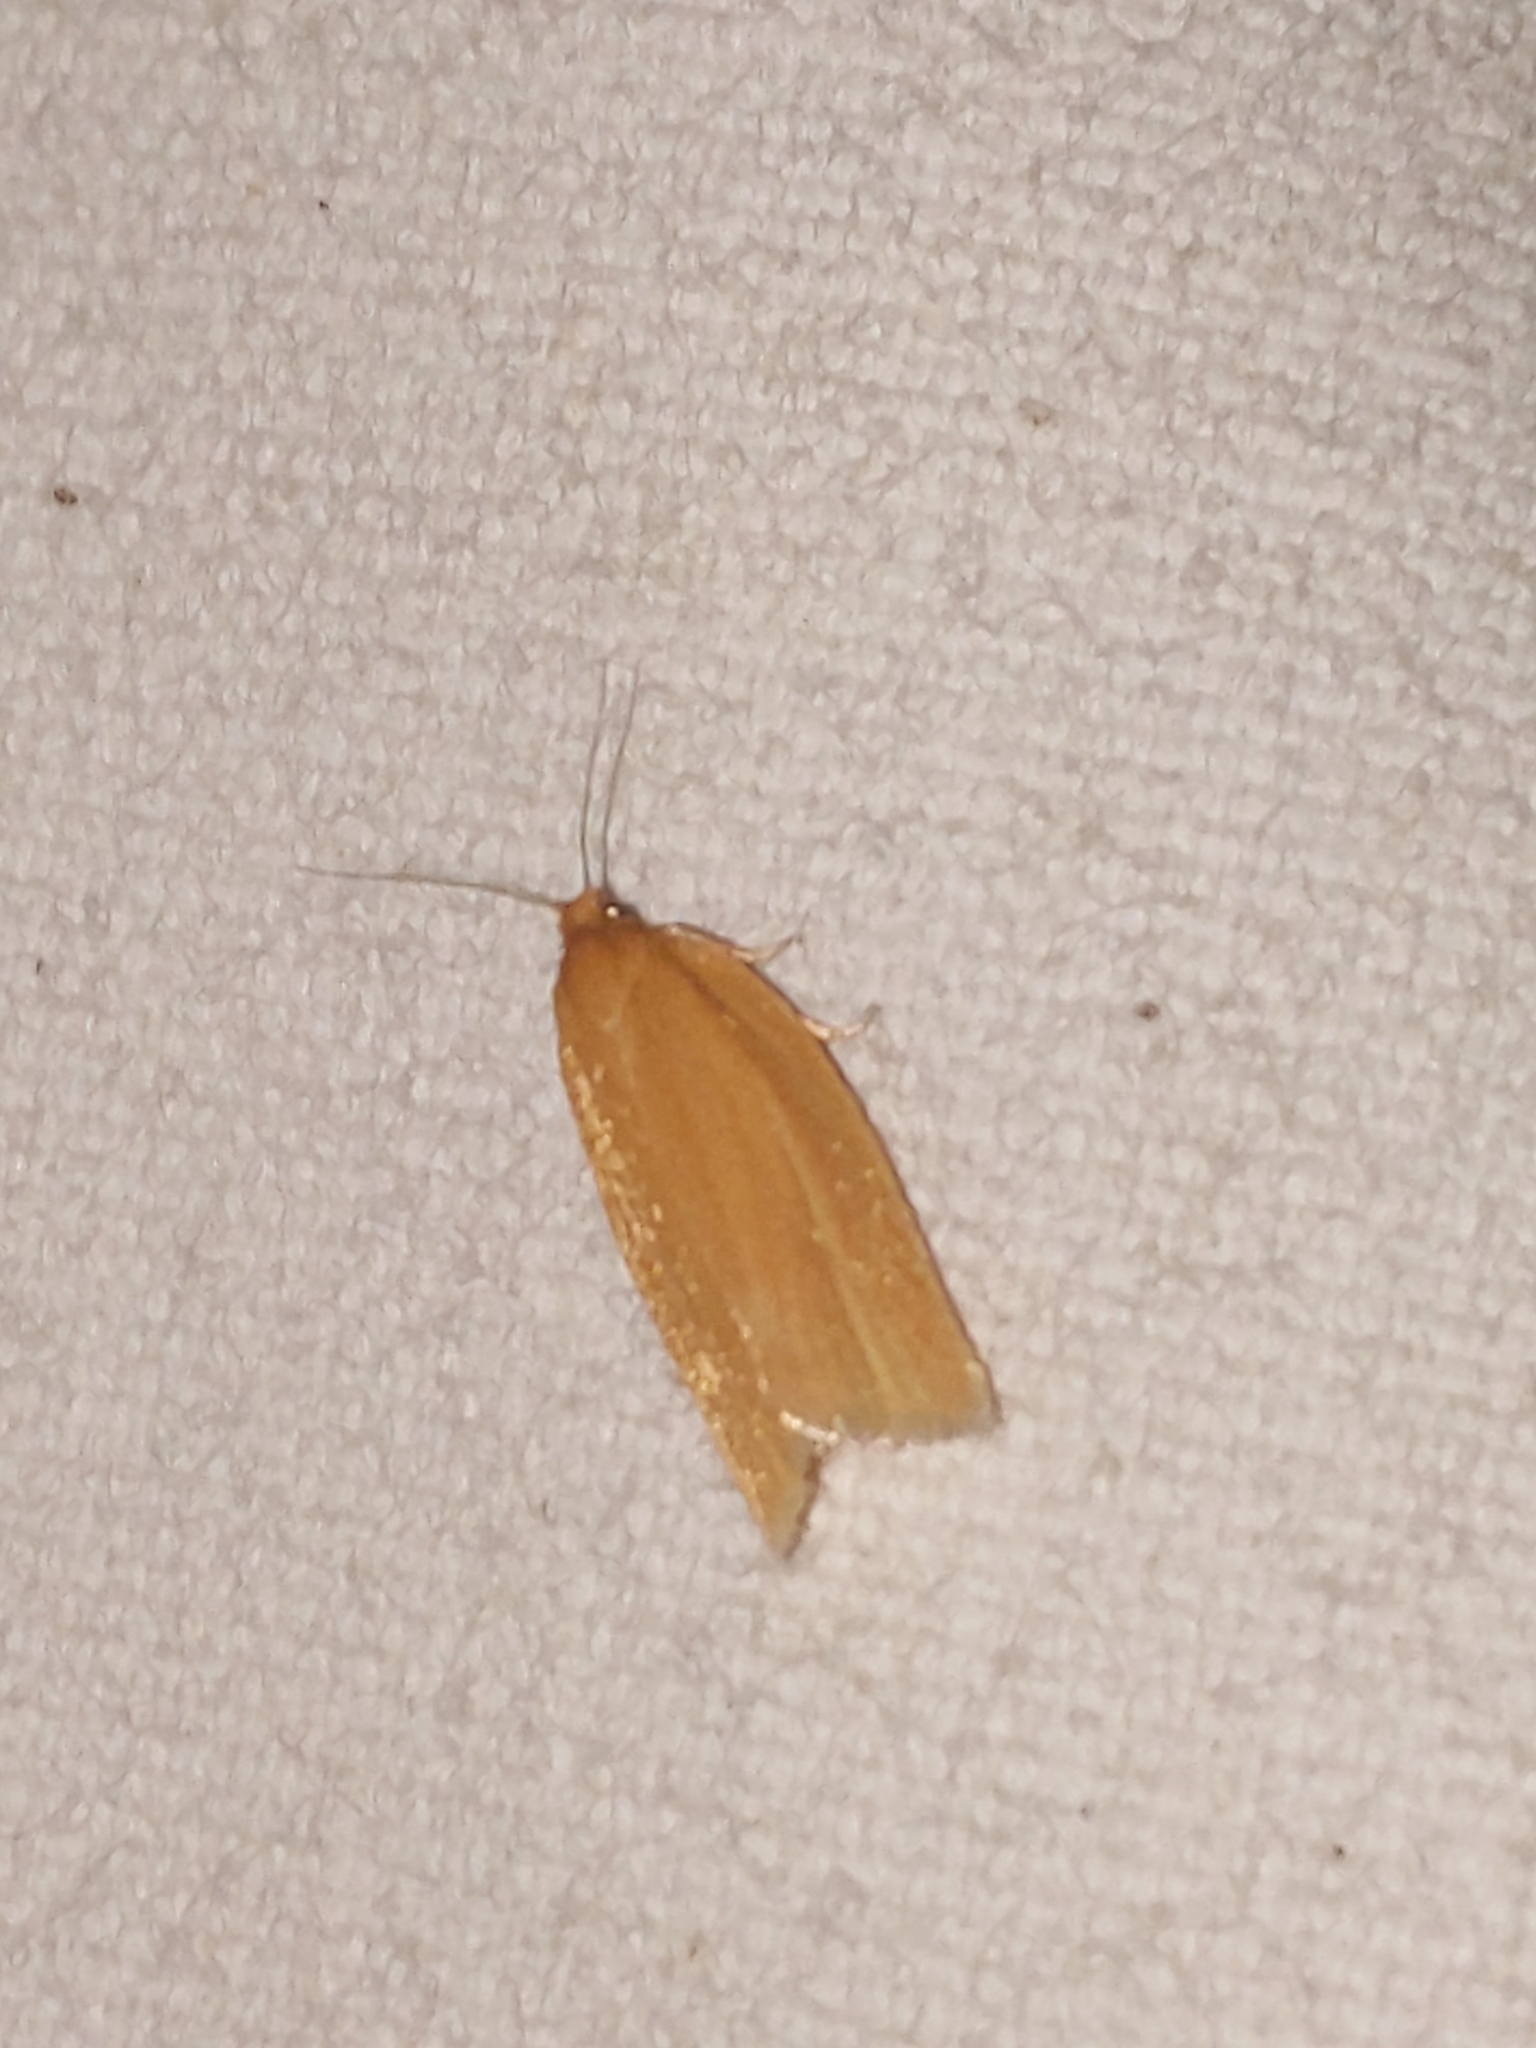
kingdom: Animalia
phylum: Arthropoda
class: Insecta
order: Lepidoptera
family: Tortricidae
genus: Clepsis
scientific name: Clepsis clemensiana
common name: Clemens' clepsis moth
